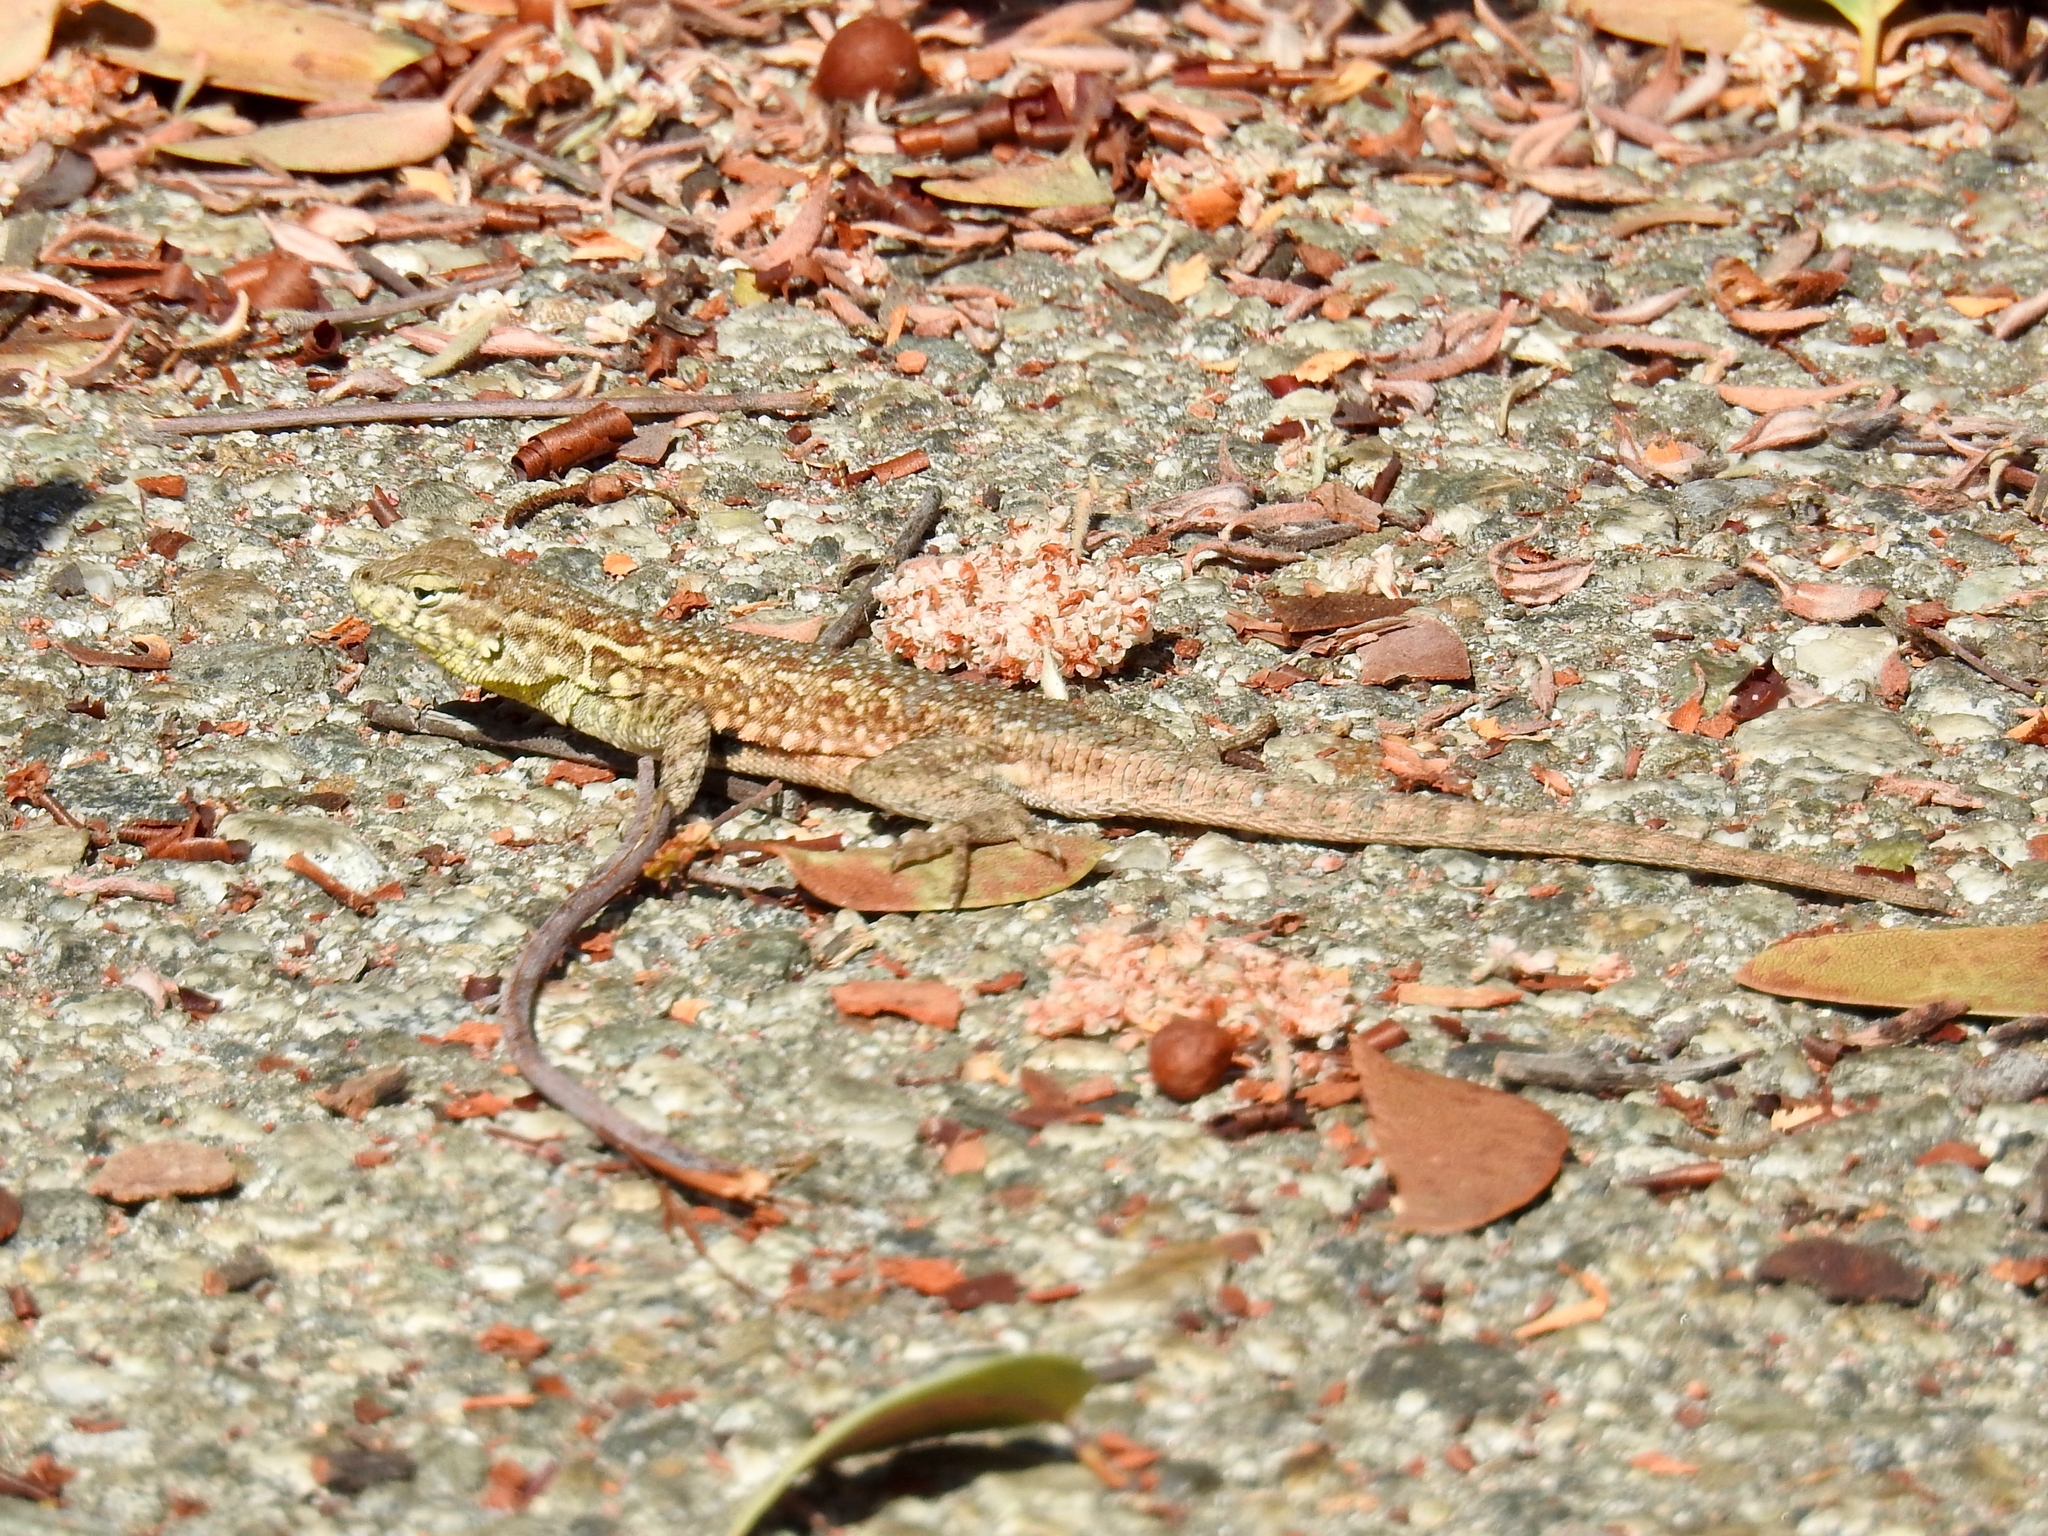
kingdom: Animalia
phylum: Chordata
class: Squamata
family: Phrynosomatidae
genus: Uta
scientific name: Uta stansburiana
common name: Side-blotched lizard
